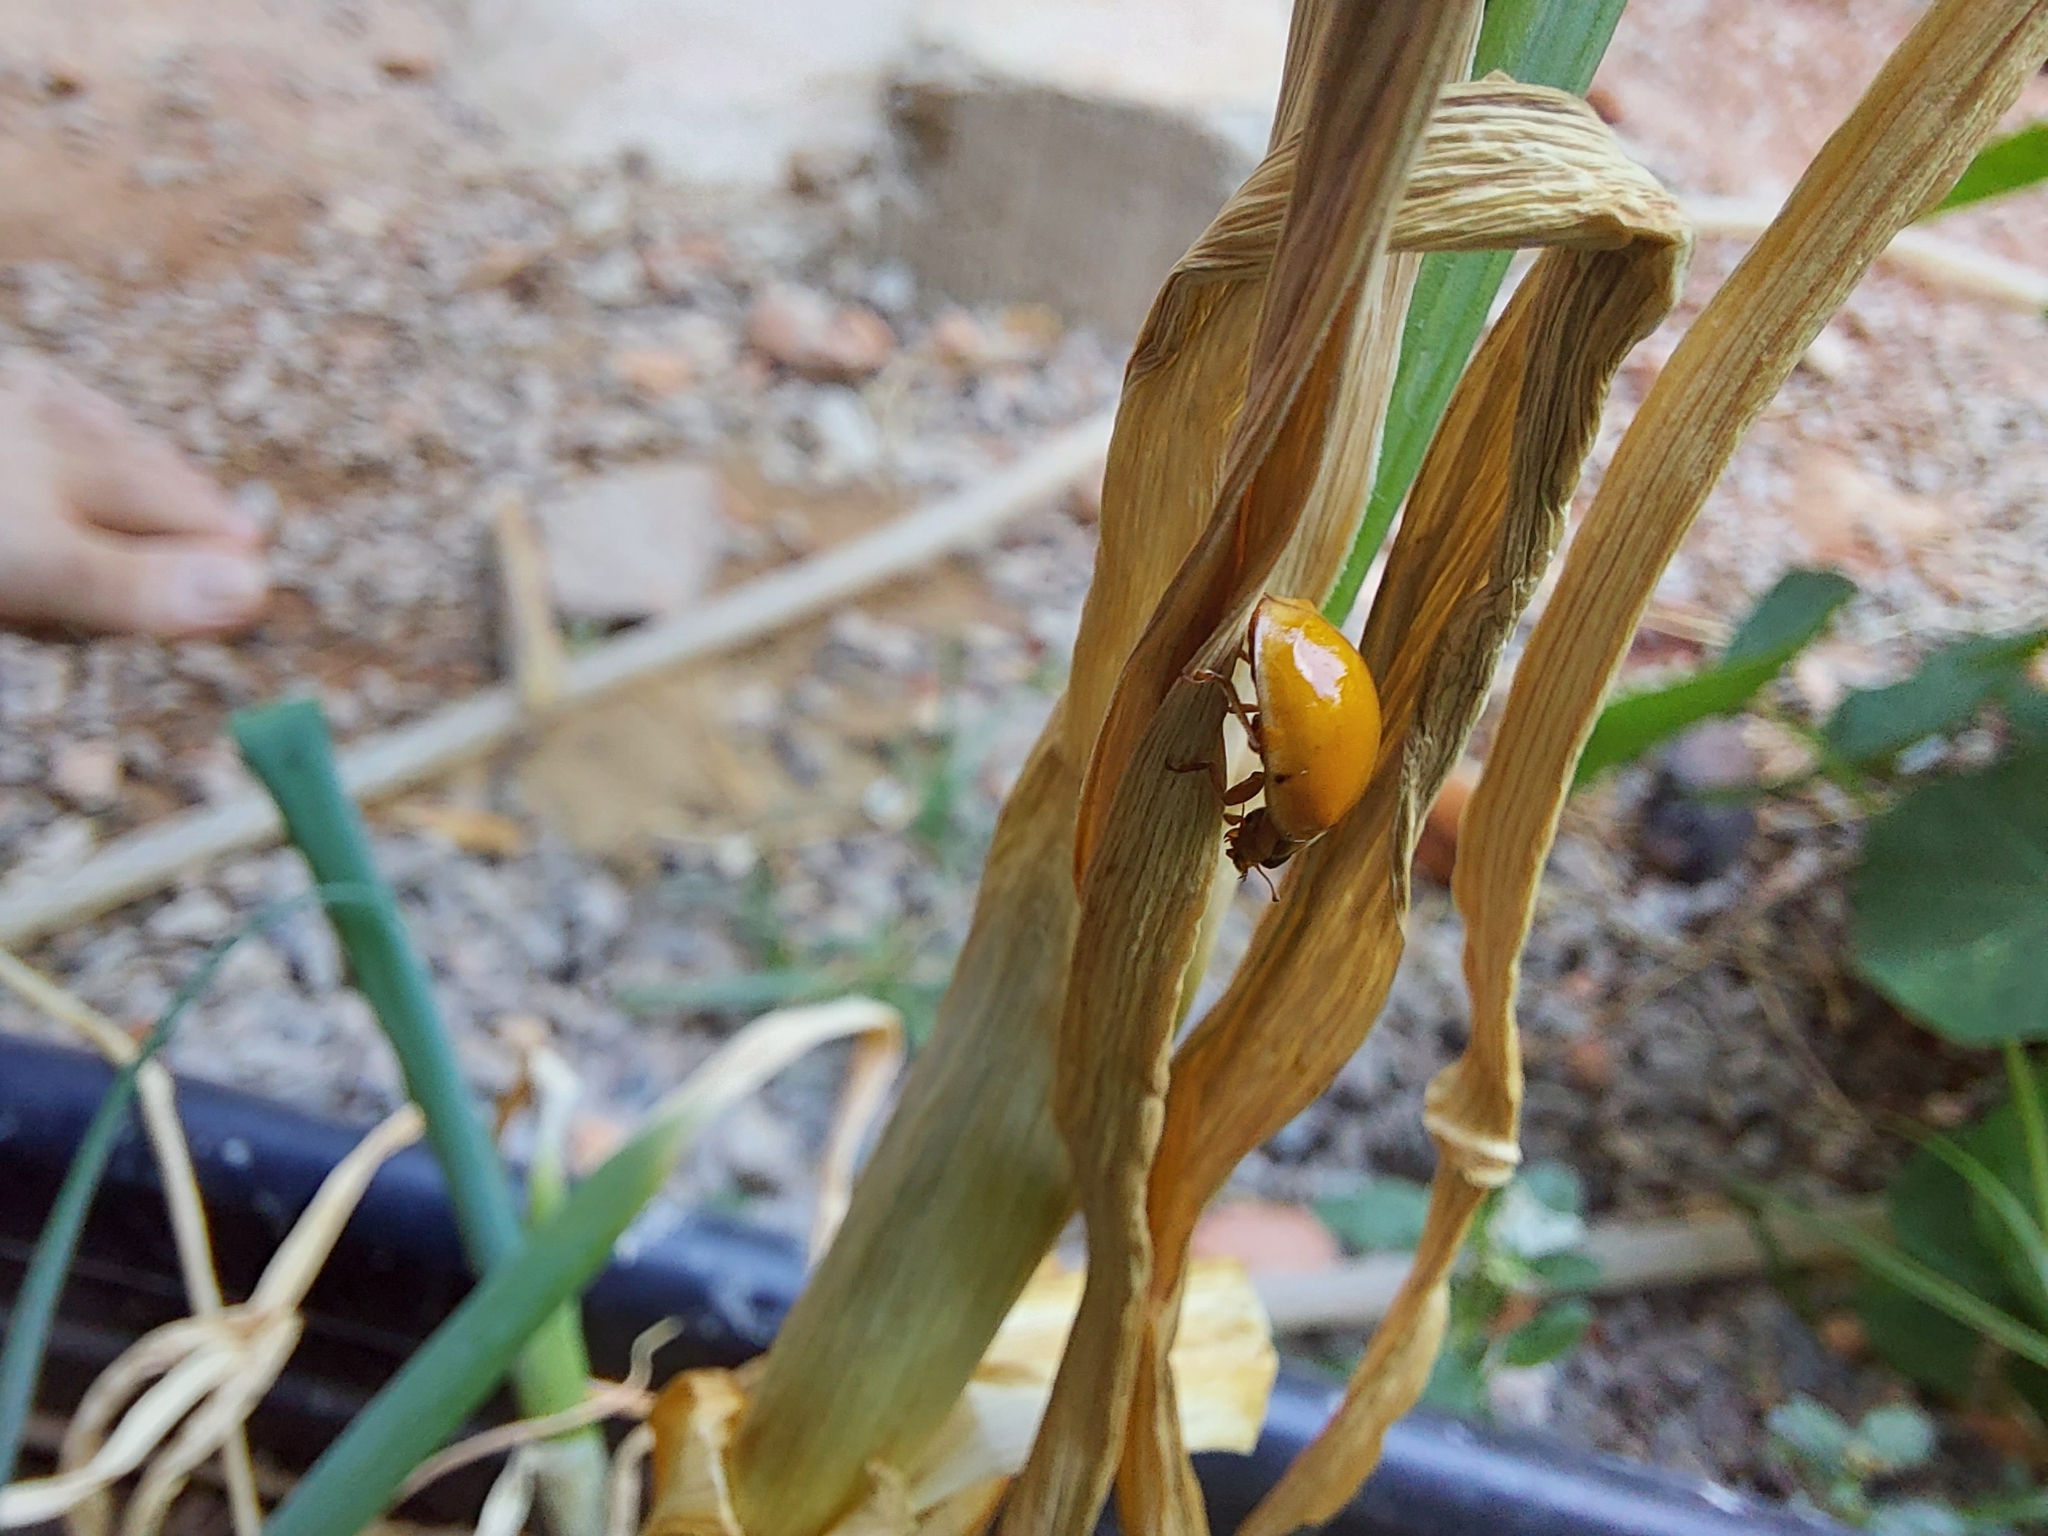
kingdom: Animalia
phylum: Arthropoda
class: Insecta
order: Coleoptera
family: Coccinellidae
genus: Harmonia
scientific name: Harmonia axyridis
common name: Harlequin ladybird
